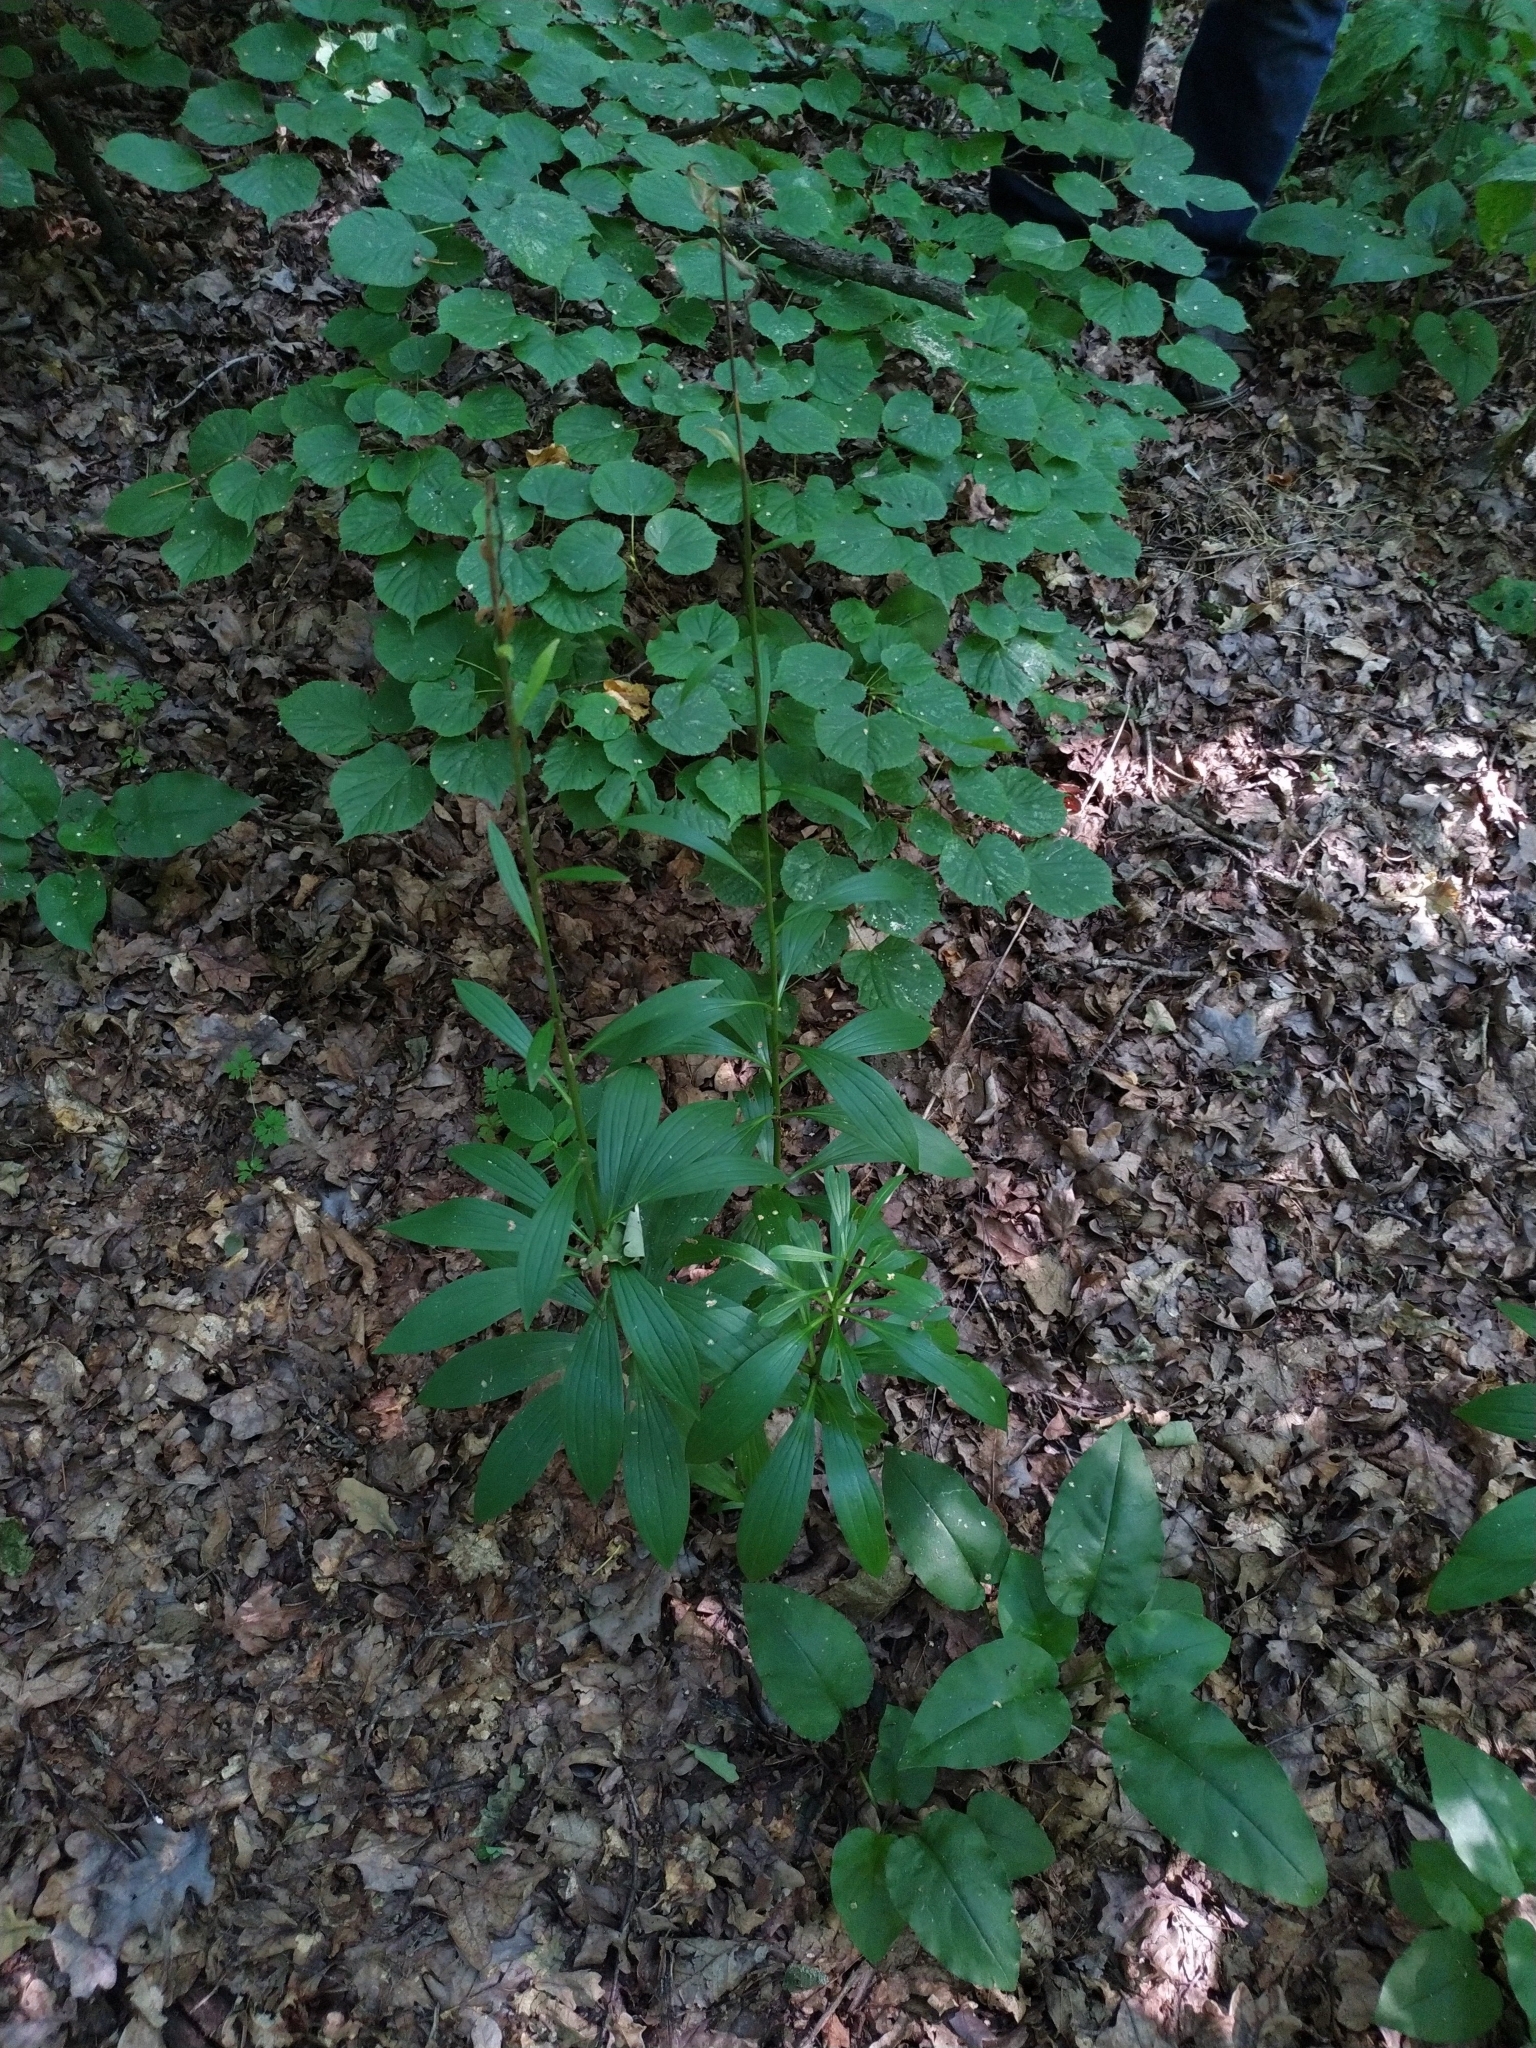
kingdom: Plantae
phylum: Tracheophyta
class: Liliopsida
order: Liliales
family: Liliaceae
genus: Lilium
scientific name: Lilium martagon
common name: Martagon lily
